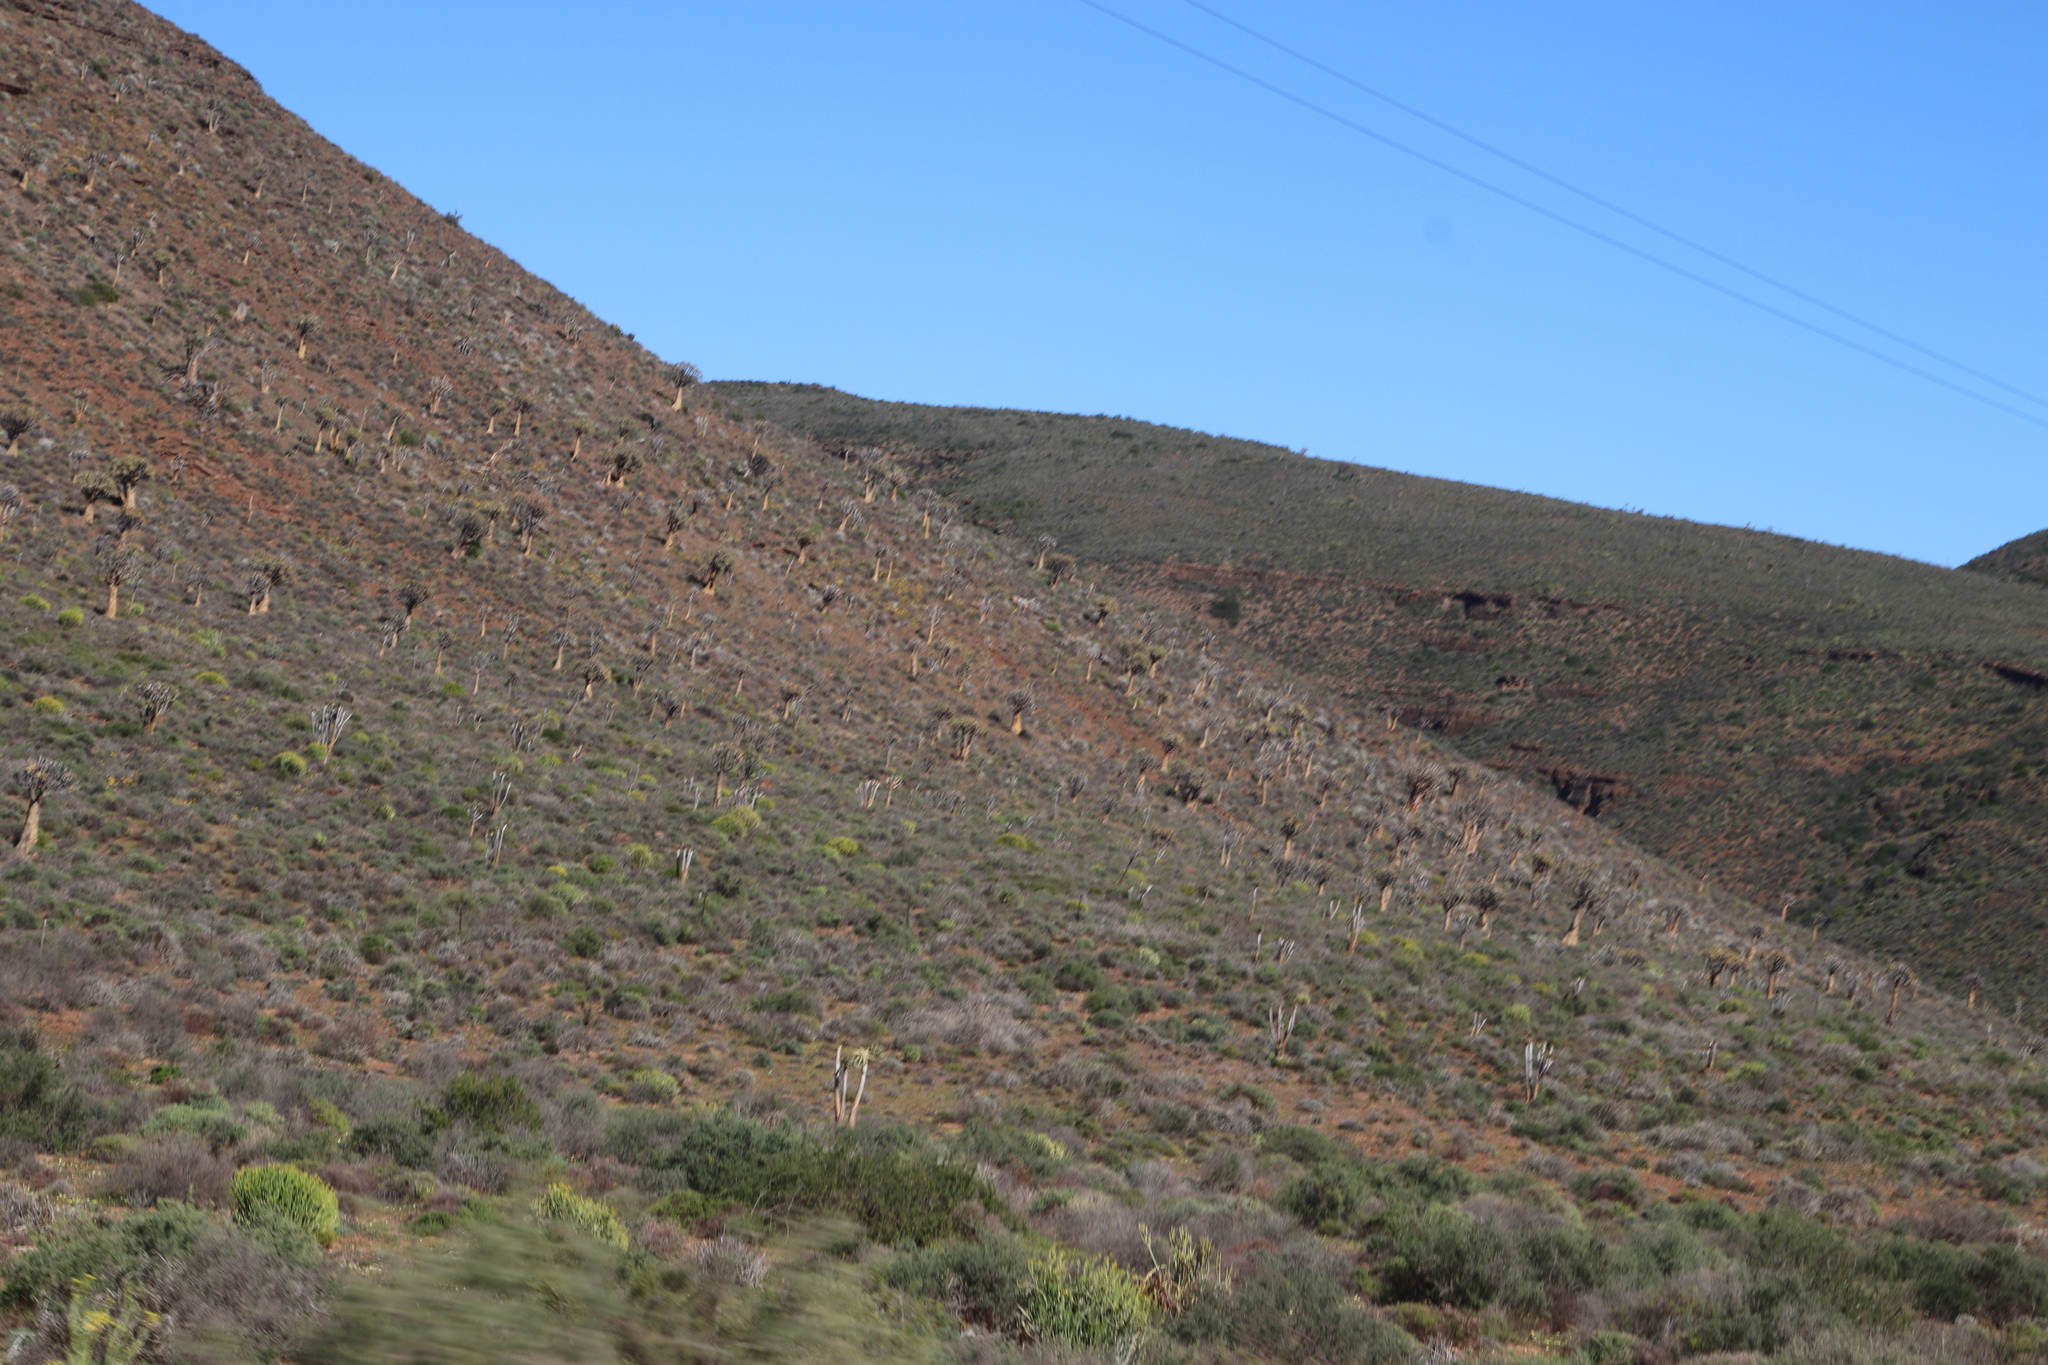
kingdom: Plantae
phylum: Tracheophyta
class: Liliopsida
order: Asparagales
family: Asphodelaceae
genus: Aloidendron
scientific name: Aloidendron dichotomum
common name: Quiver tree
